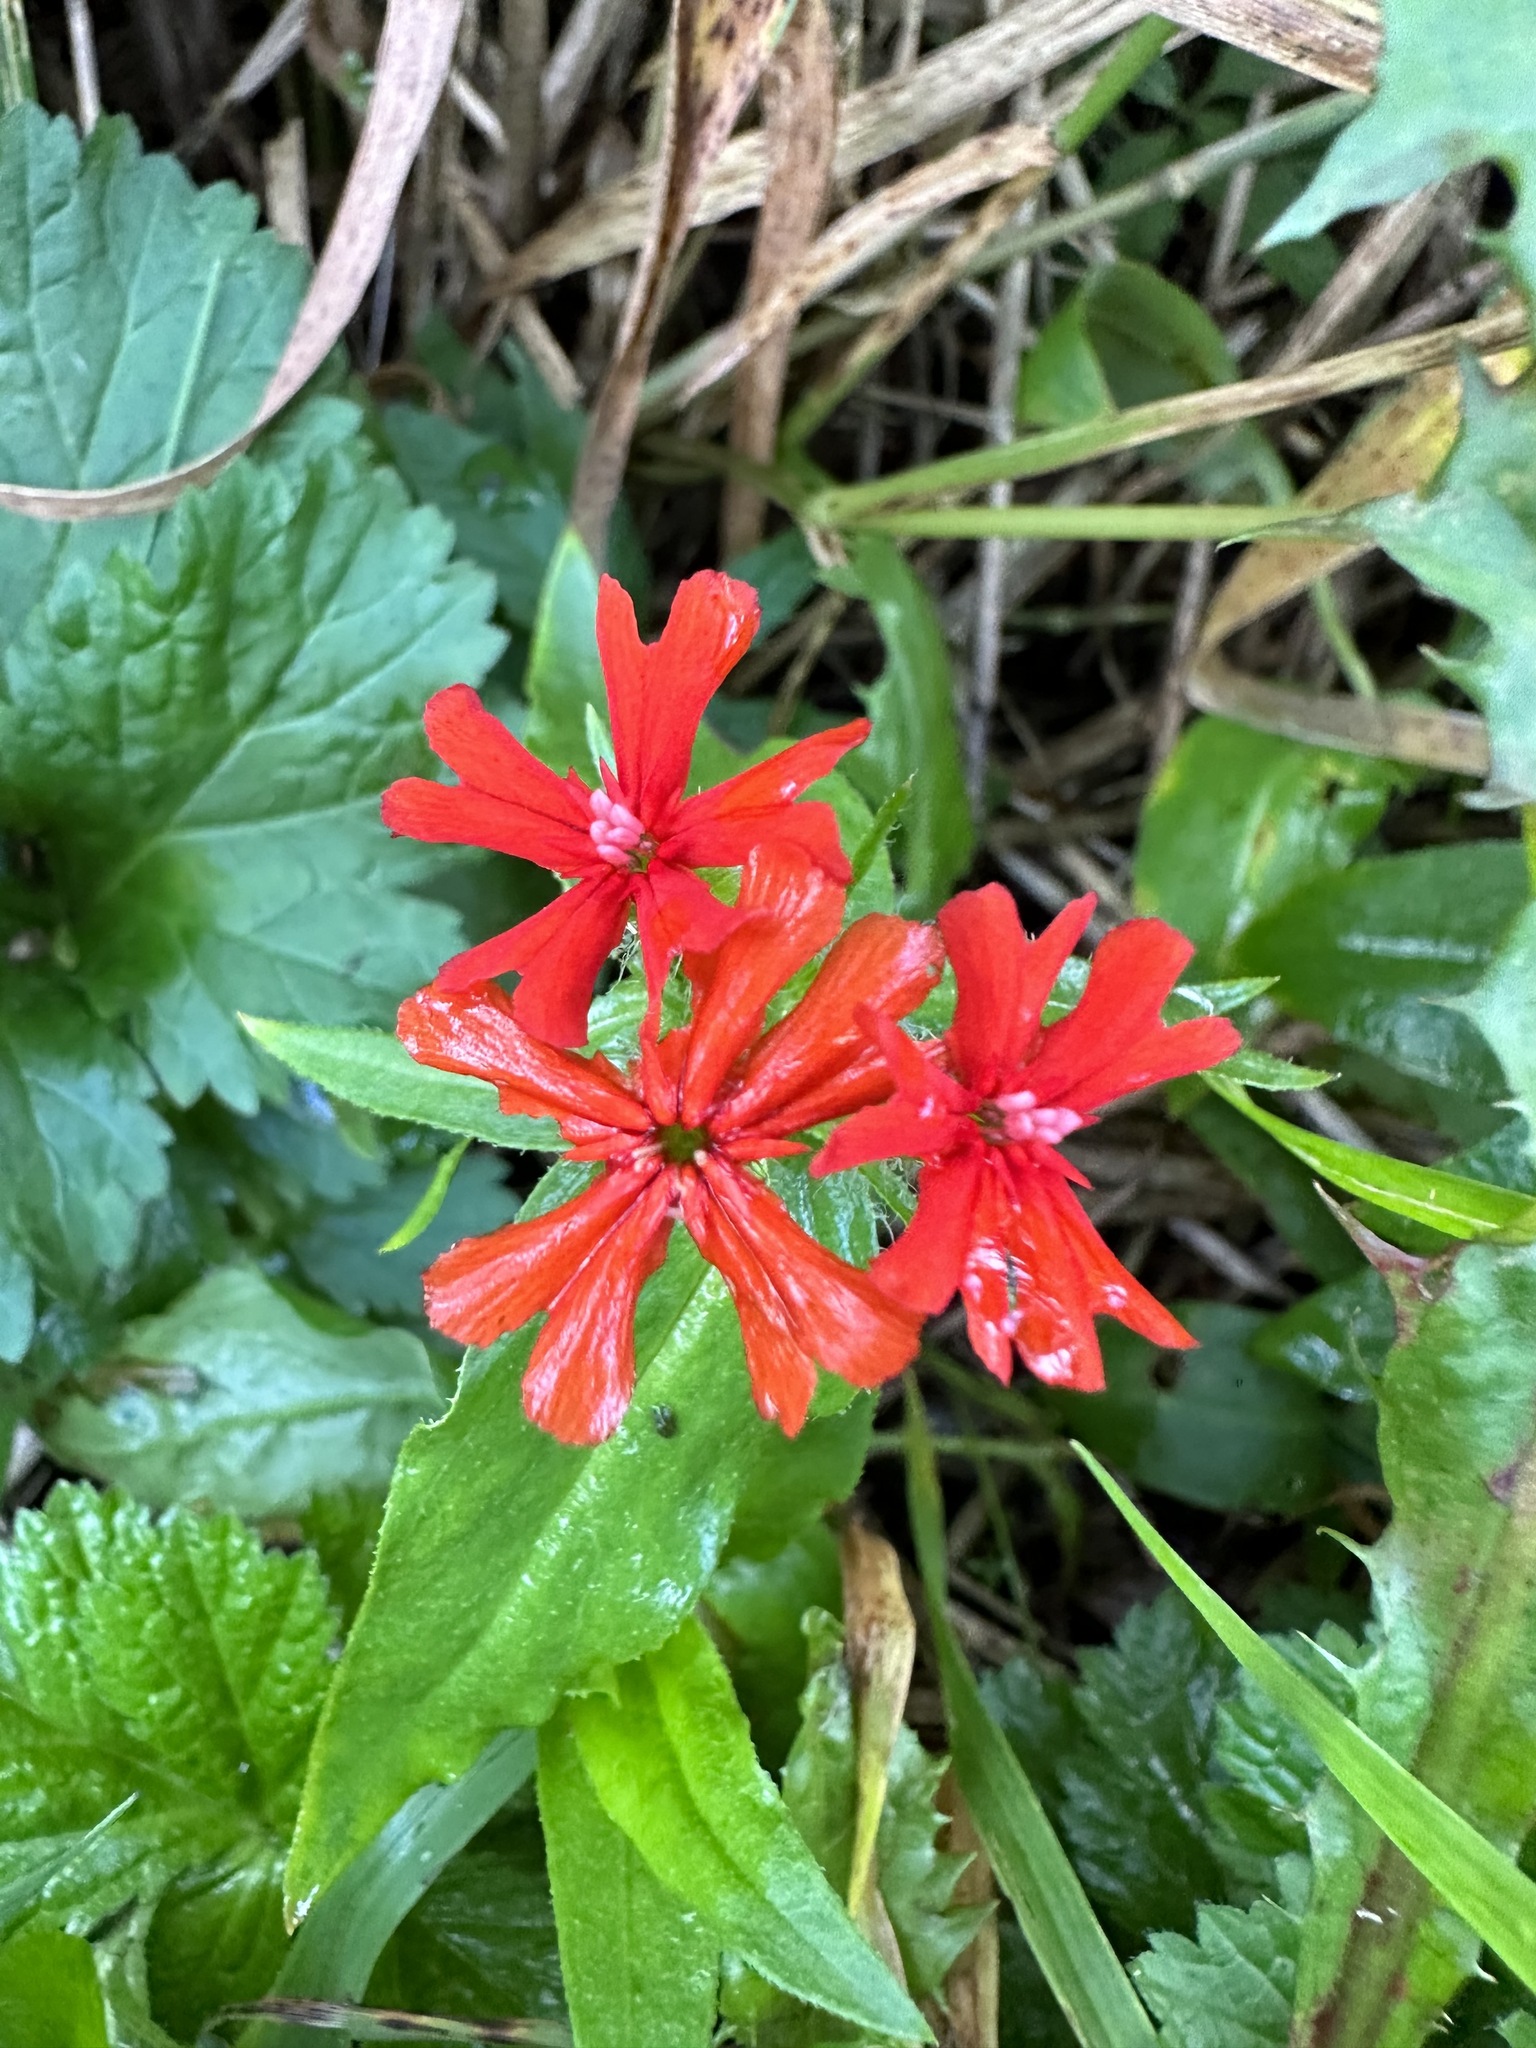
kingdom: Plantae
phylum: Tracheophyta
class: Magnoliopsida
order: Caryophyllales
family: Caryophyllaceae
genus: Silene
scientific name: Silene chalcedonica
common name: Maltese-cross
